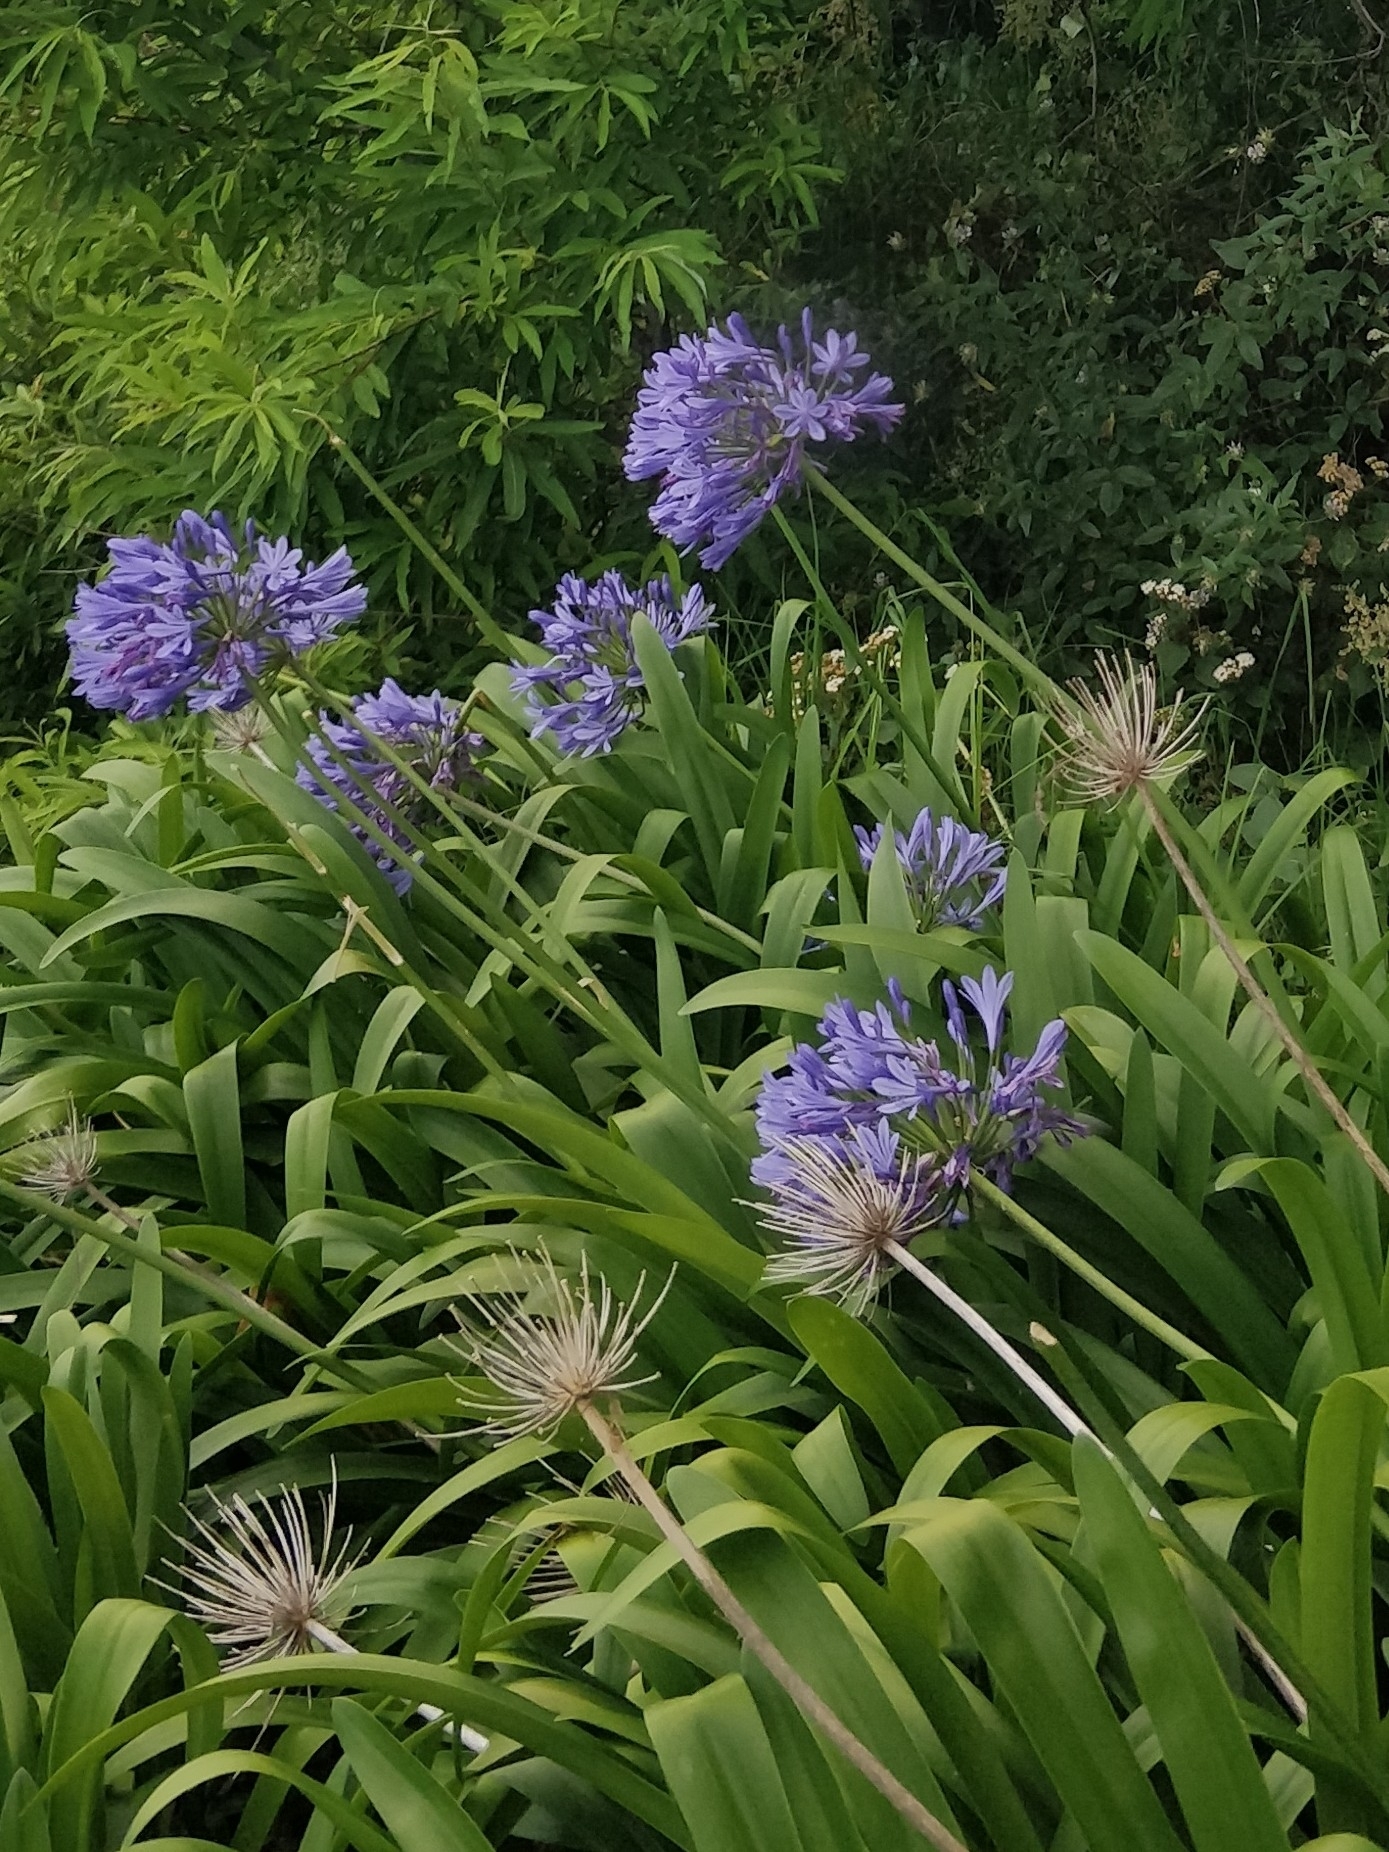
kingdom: Plantae
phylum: Tracheophyta
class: Liliopsida
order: Asparagales
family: Amaryllidaceae
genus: Agapanthus
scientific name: Agapanthus praecox
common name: African-lily
